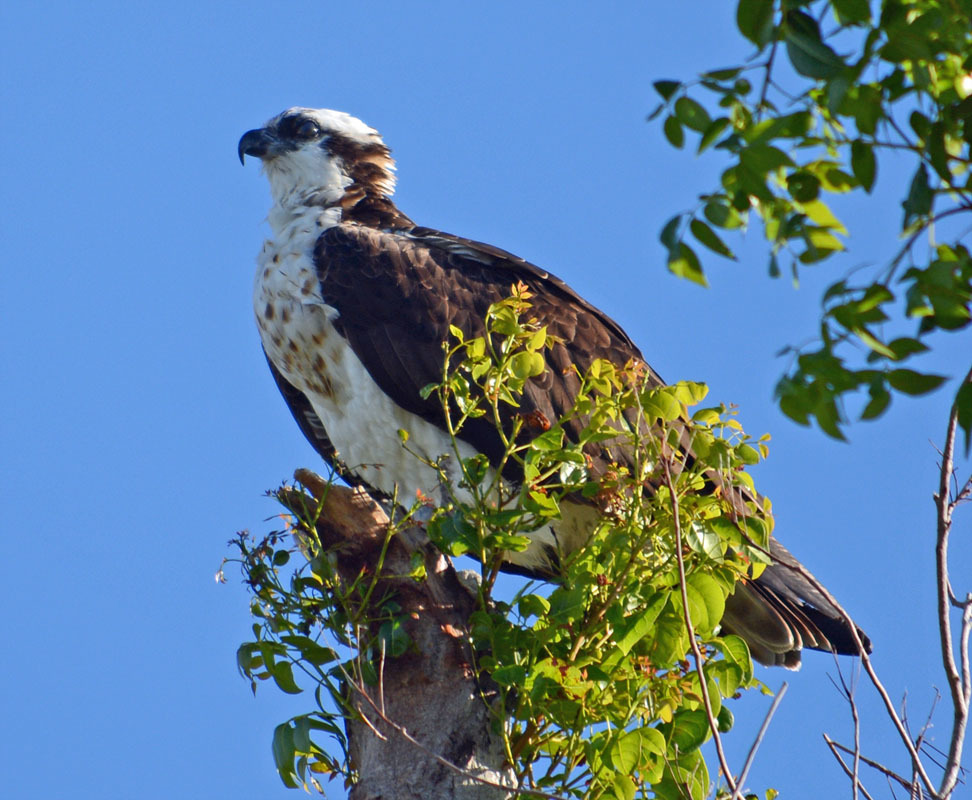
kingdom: Animalia
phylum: Chordata
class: Aves
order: Accipitriformes
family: Pandionidae
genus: Pandion
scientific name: Pandion haliaetus
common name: Osprey
